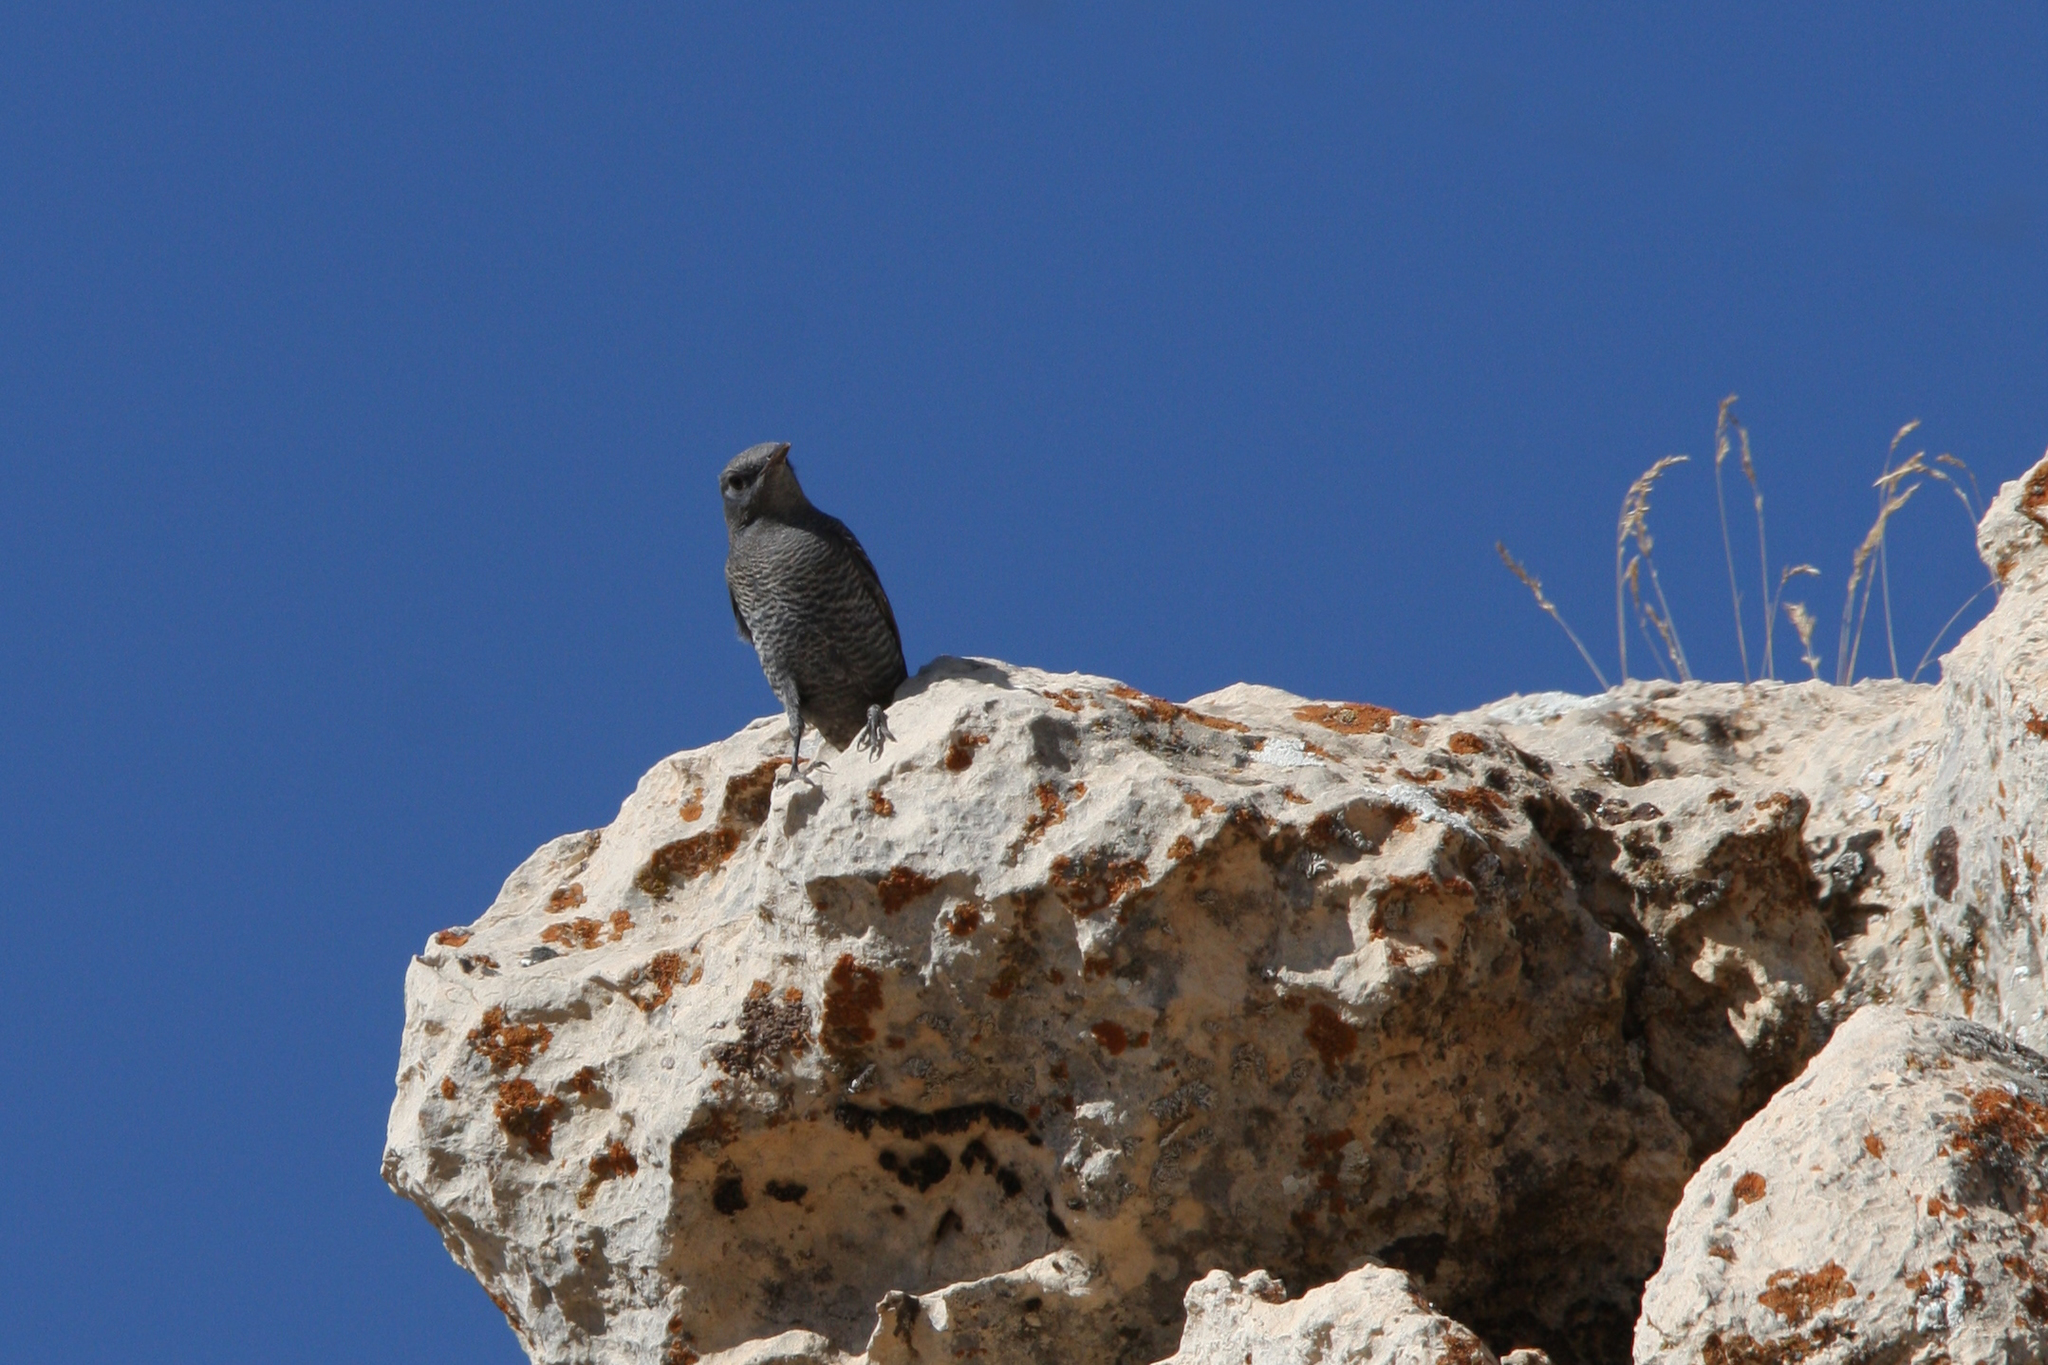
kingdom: Animalia
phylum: Chordata
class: Aves
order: Passeriformes
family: Muscicapidae
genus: Monticola
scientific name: Monticola solitarius
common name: Blue rock thrush
